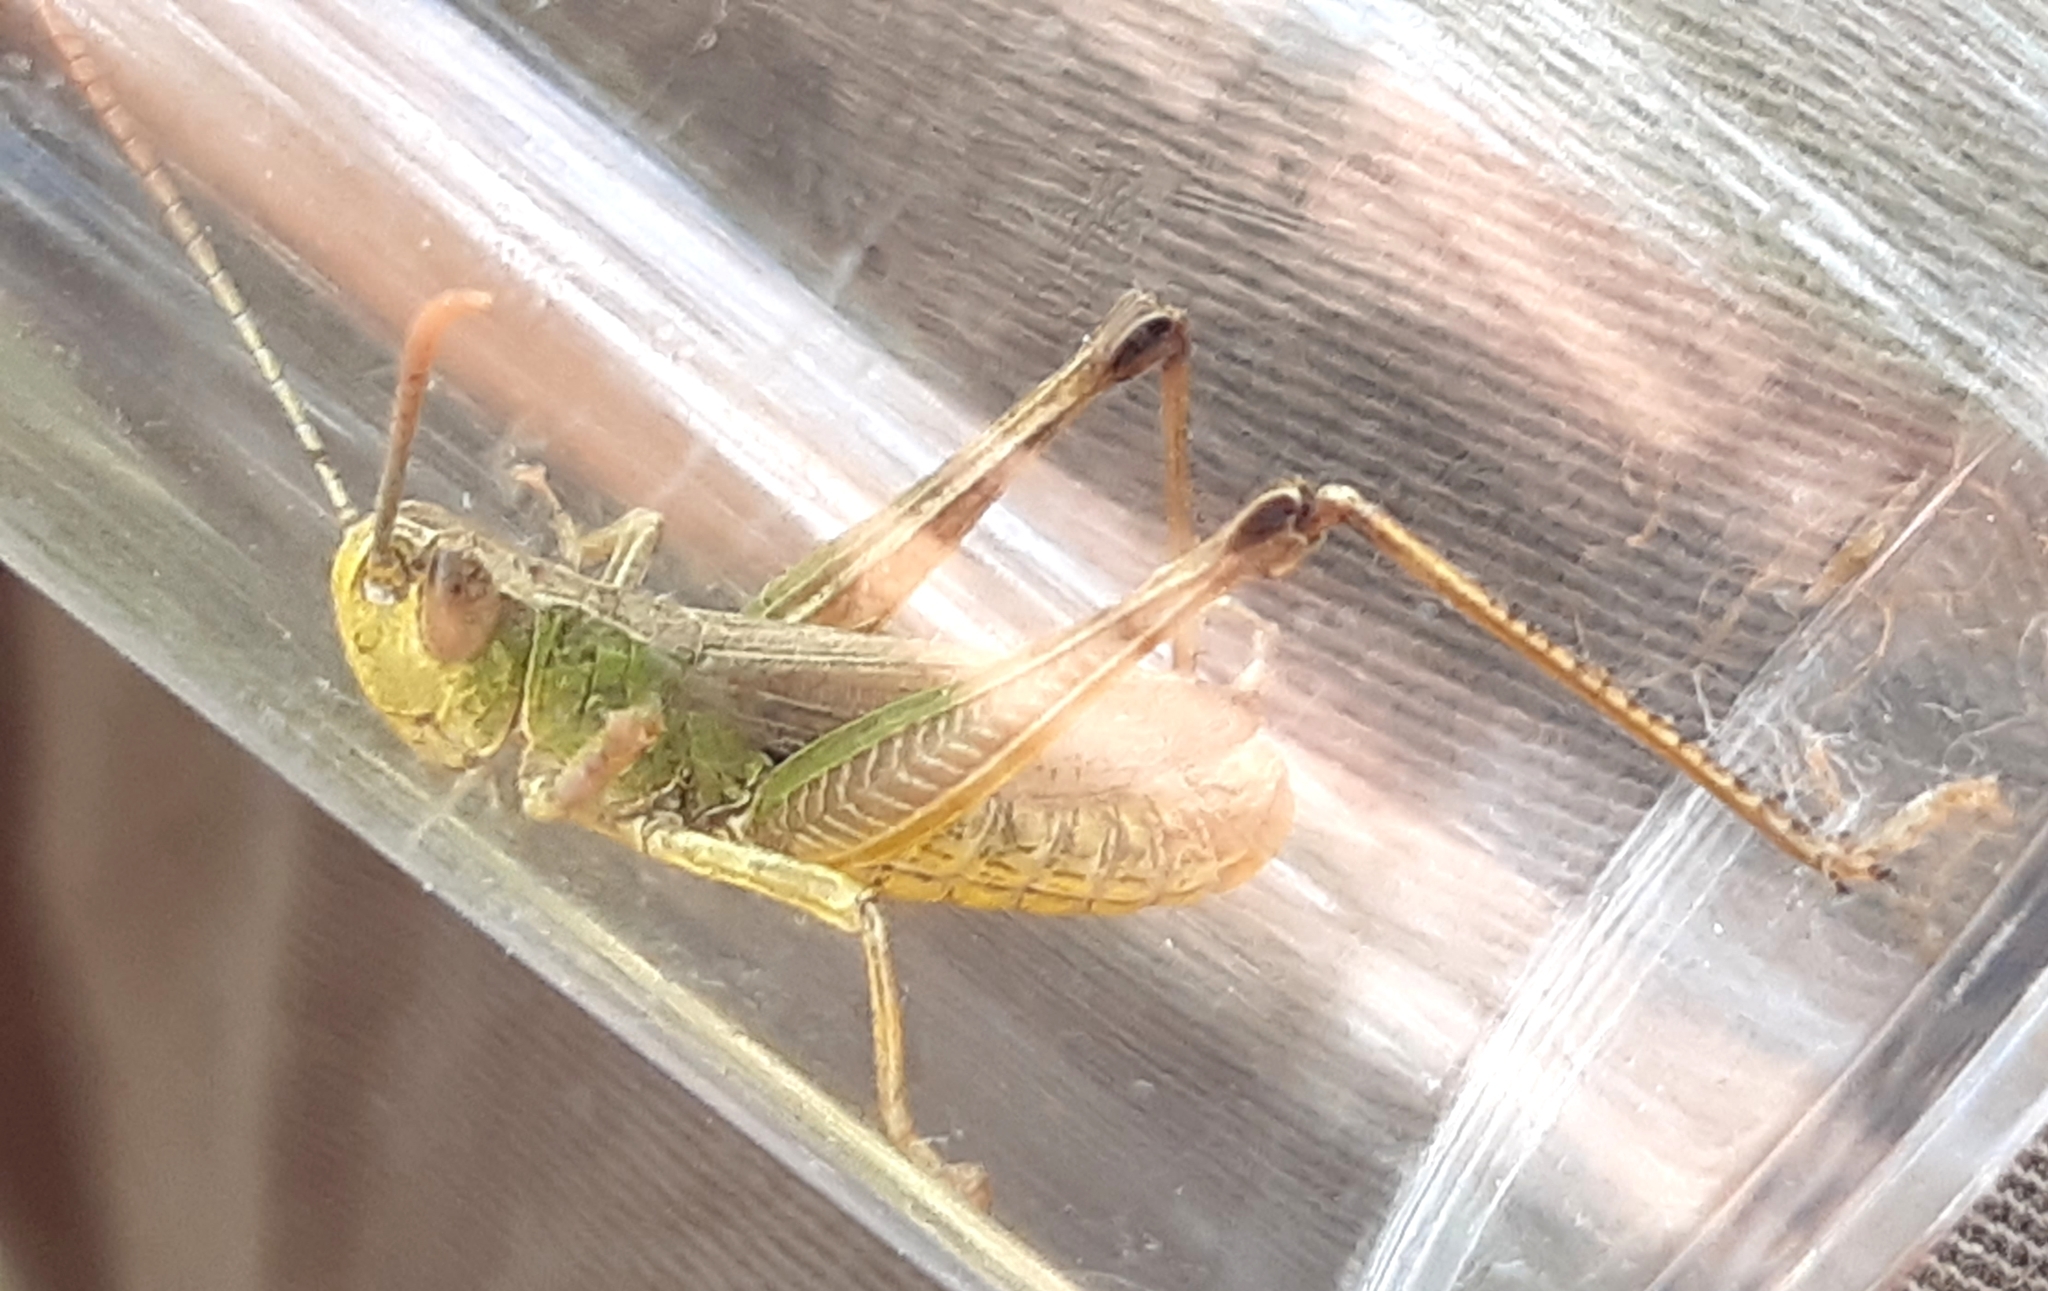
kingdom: Animalia
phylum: Arthropoda
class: Insecta
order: Orthoptera
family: Acrididae
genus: Pseudochorthippus
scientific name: Pseudochorthippus parallelus
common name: Meadow grasshopper
